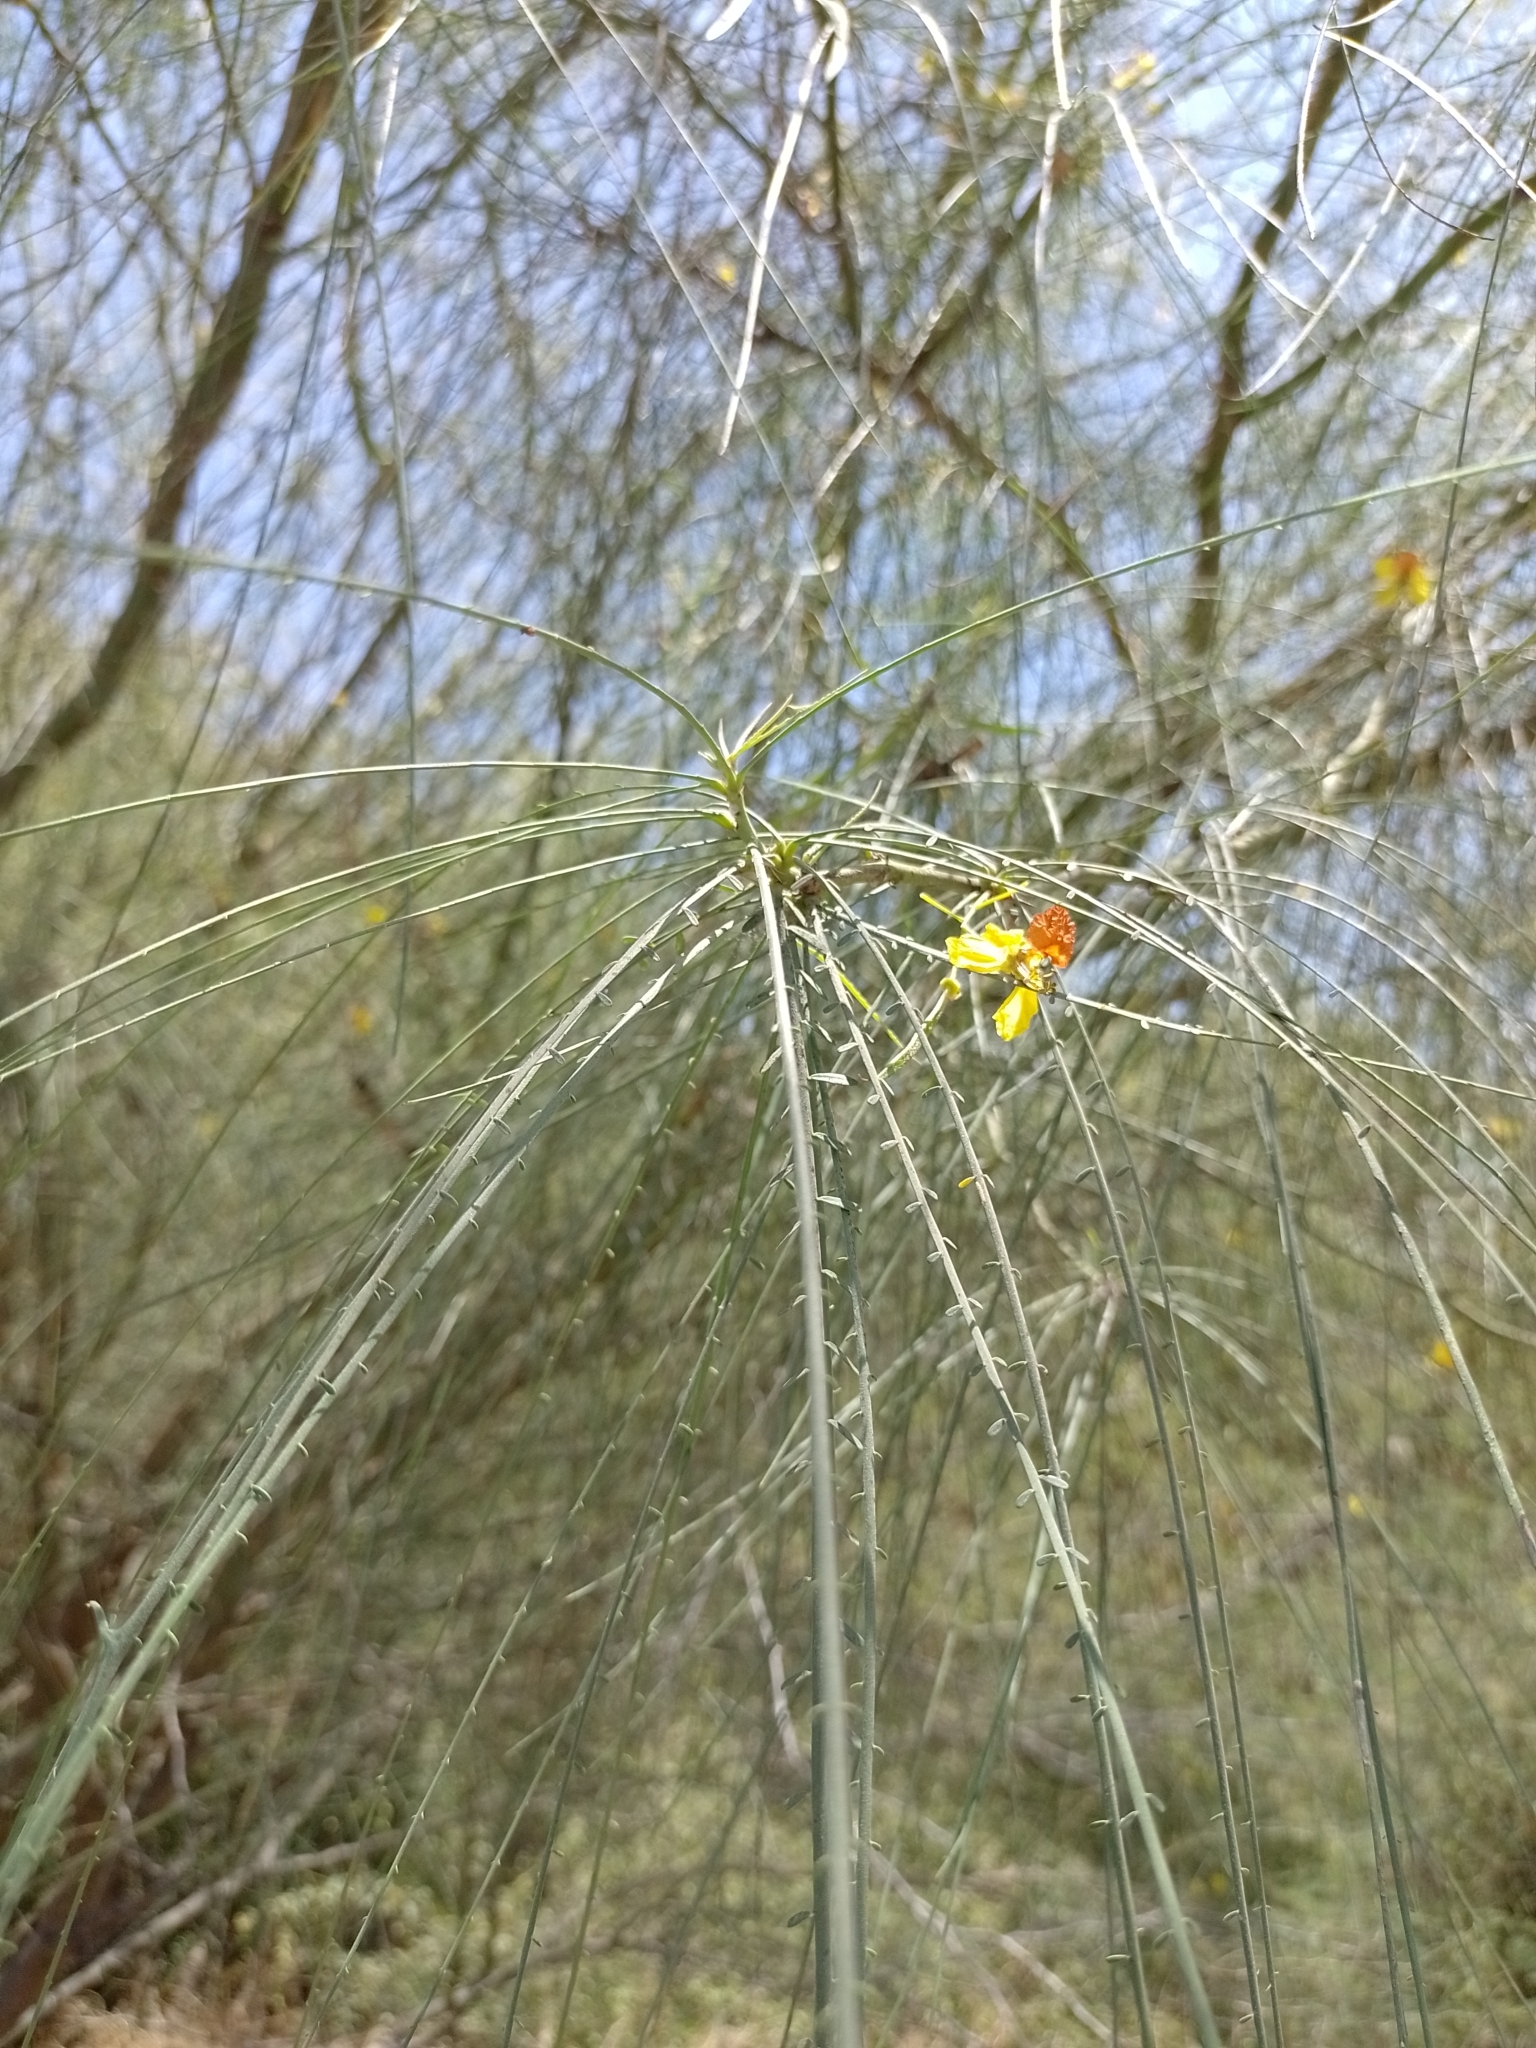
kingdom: Plantae
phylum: Tracheophyta
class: Magnoliopsida
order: Fabales
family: Fabaceae
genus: Parkinsonia
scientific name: Parkinsonia aculeata
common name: Jerusalem thorn
